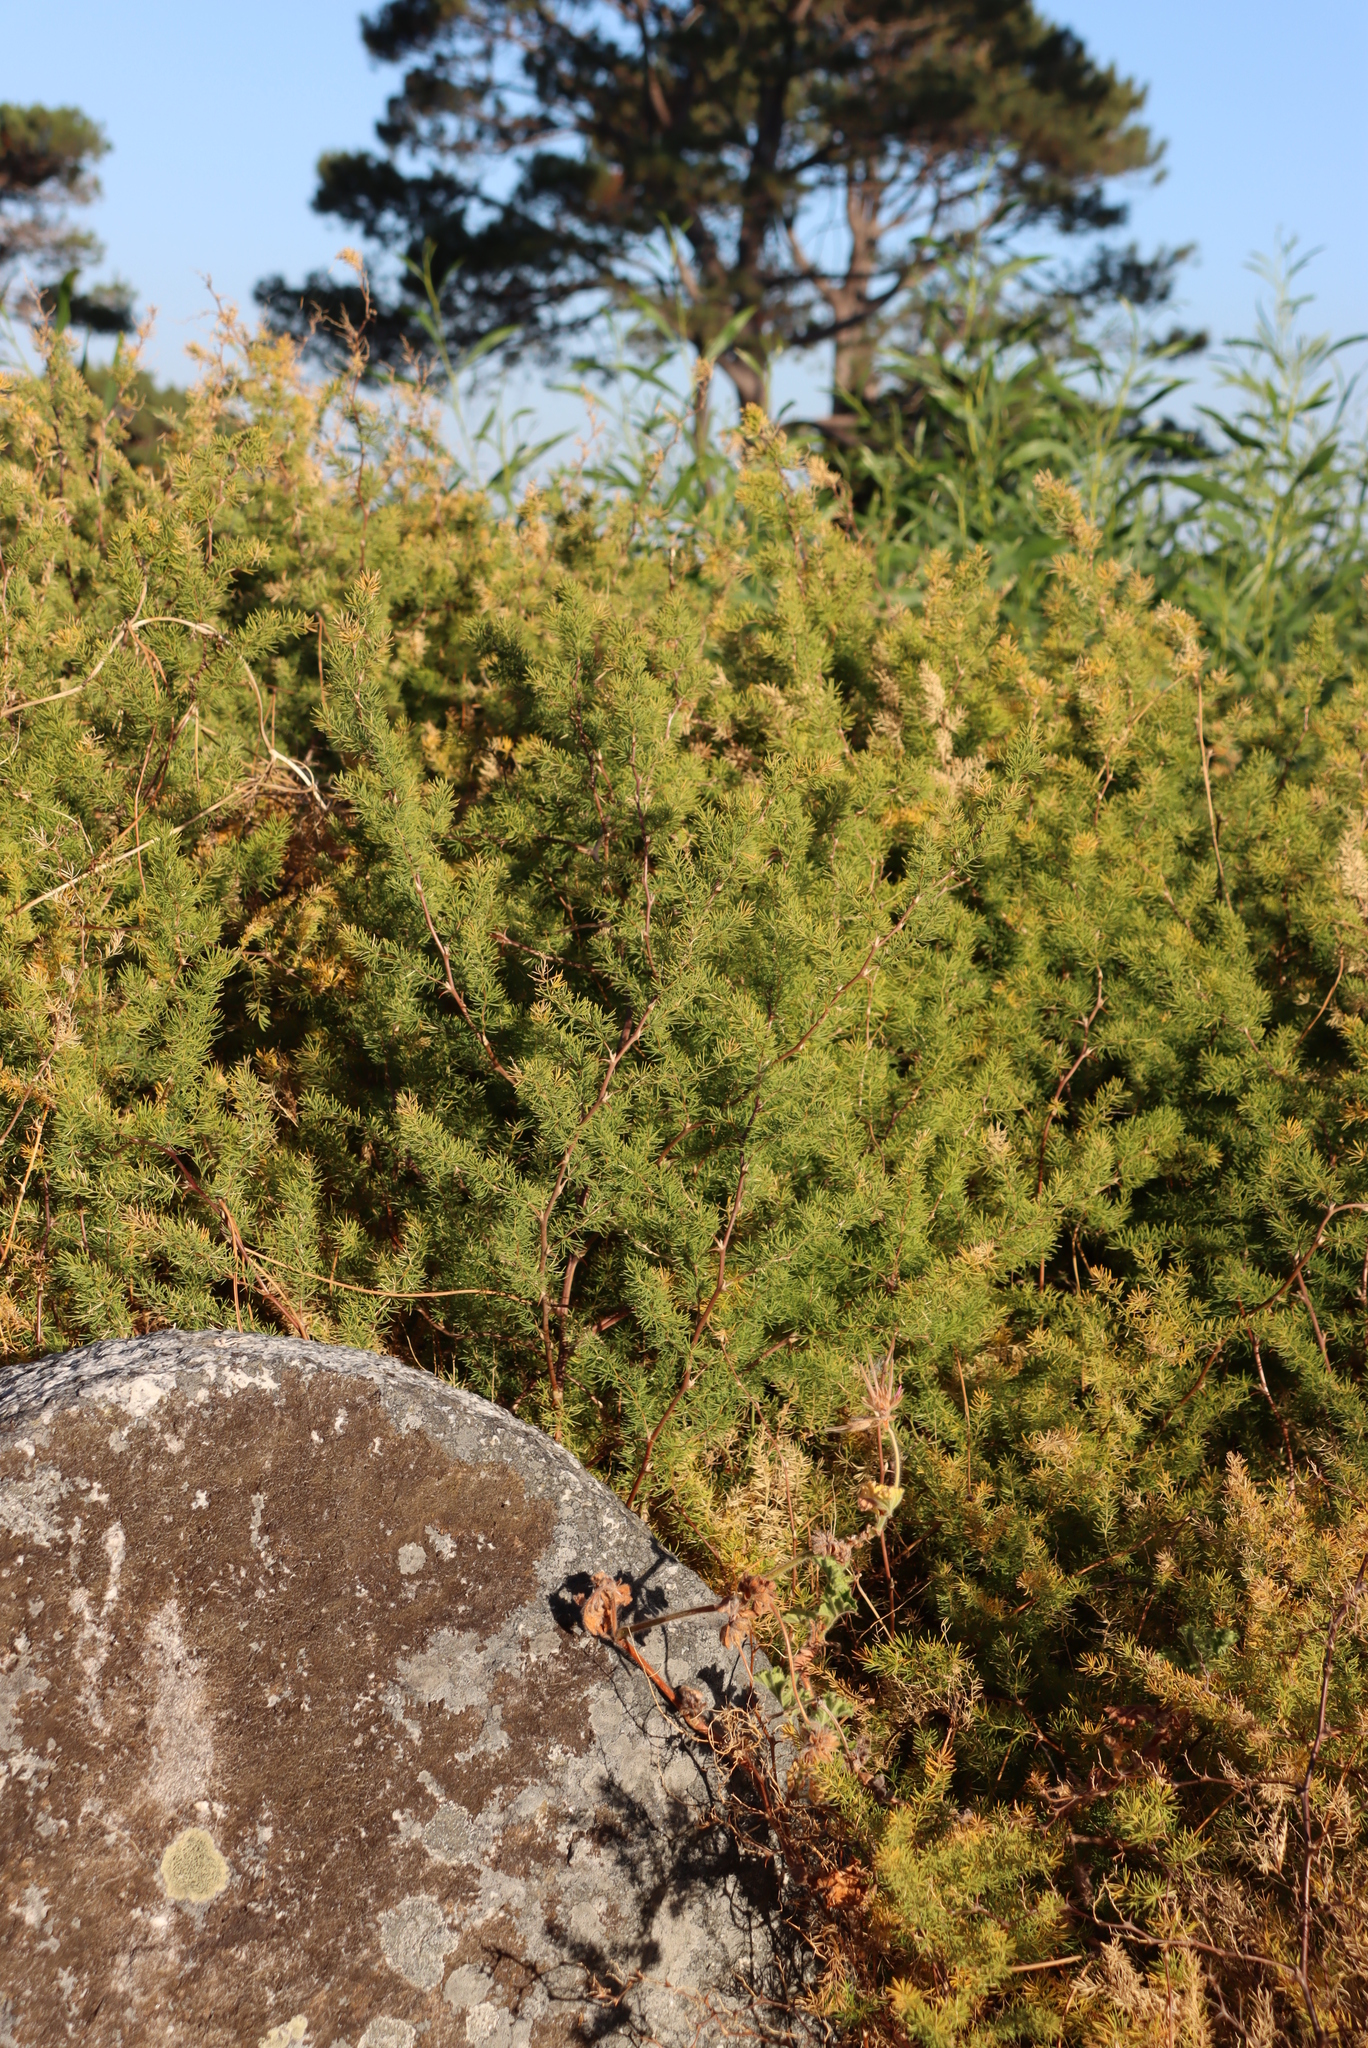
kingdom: Plantae
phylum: Tracheophyta
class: Liliopsida
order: Asparagales
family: Asparagaceae
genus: Asparagus
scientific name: Asparagus rubicundus
